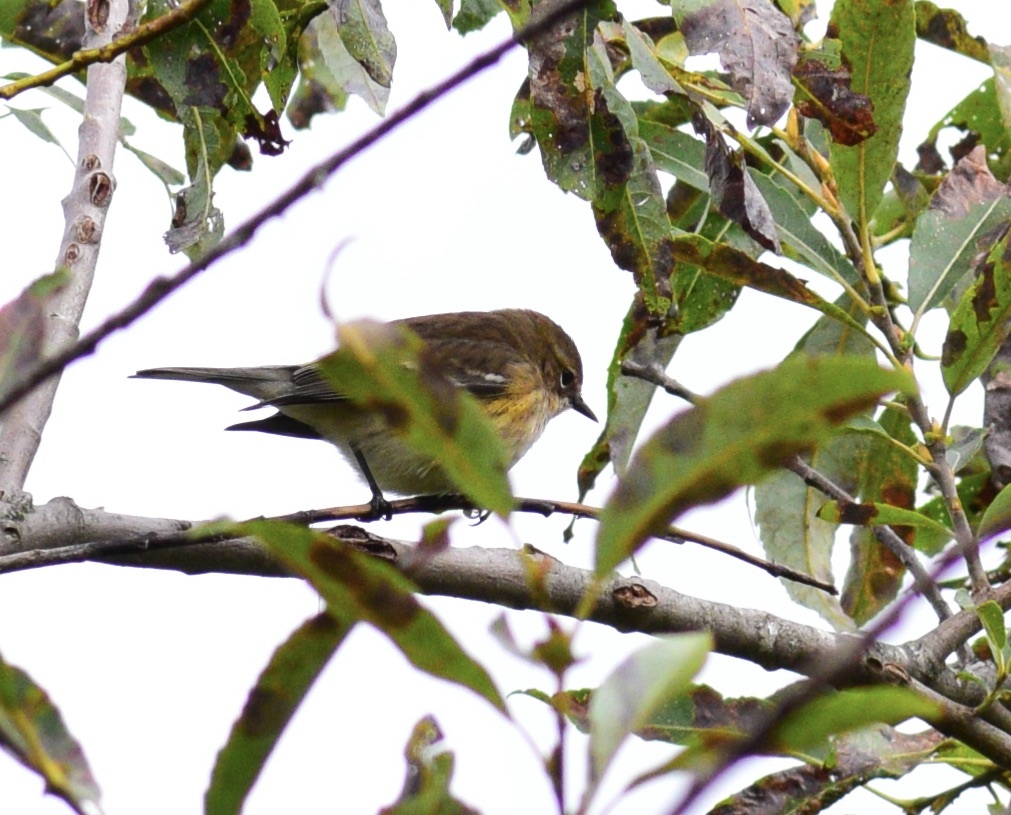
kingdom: Animalia
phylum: Chordata
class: Aves
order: Passeriformes
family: Parulidae
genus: Setophaga
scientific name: Setophaga coronata
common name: Myrtle warbler
